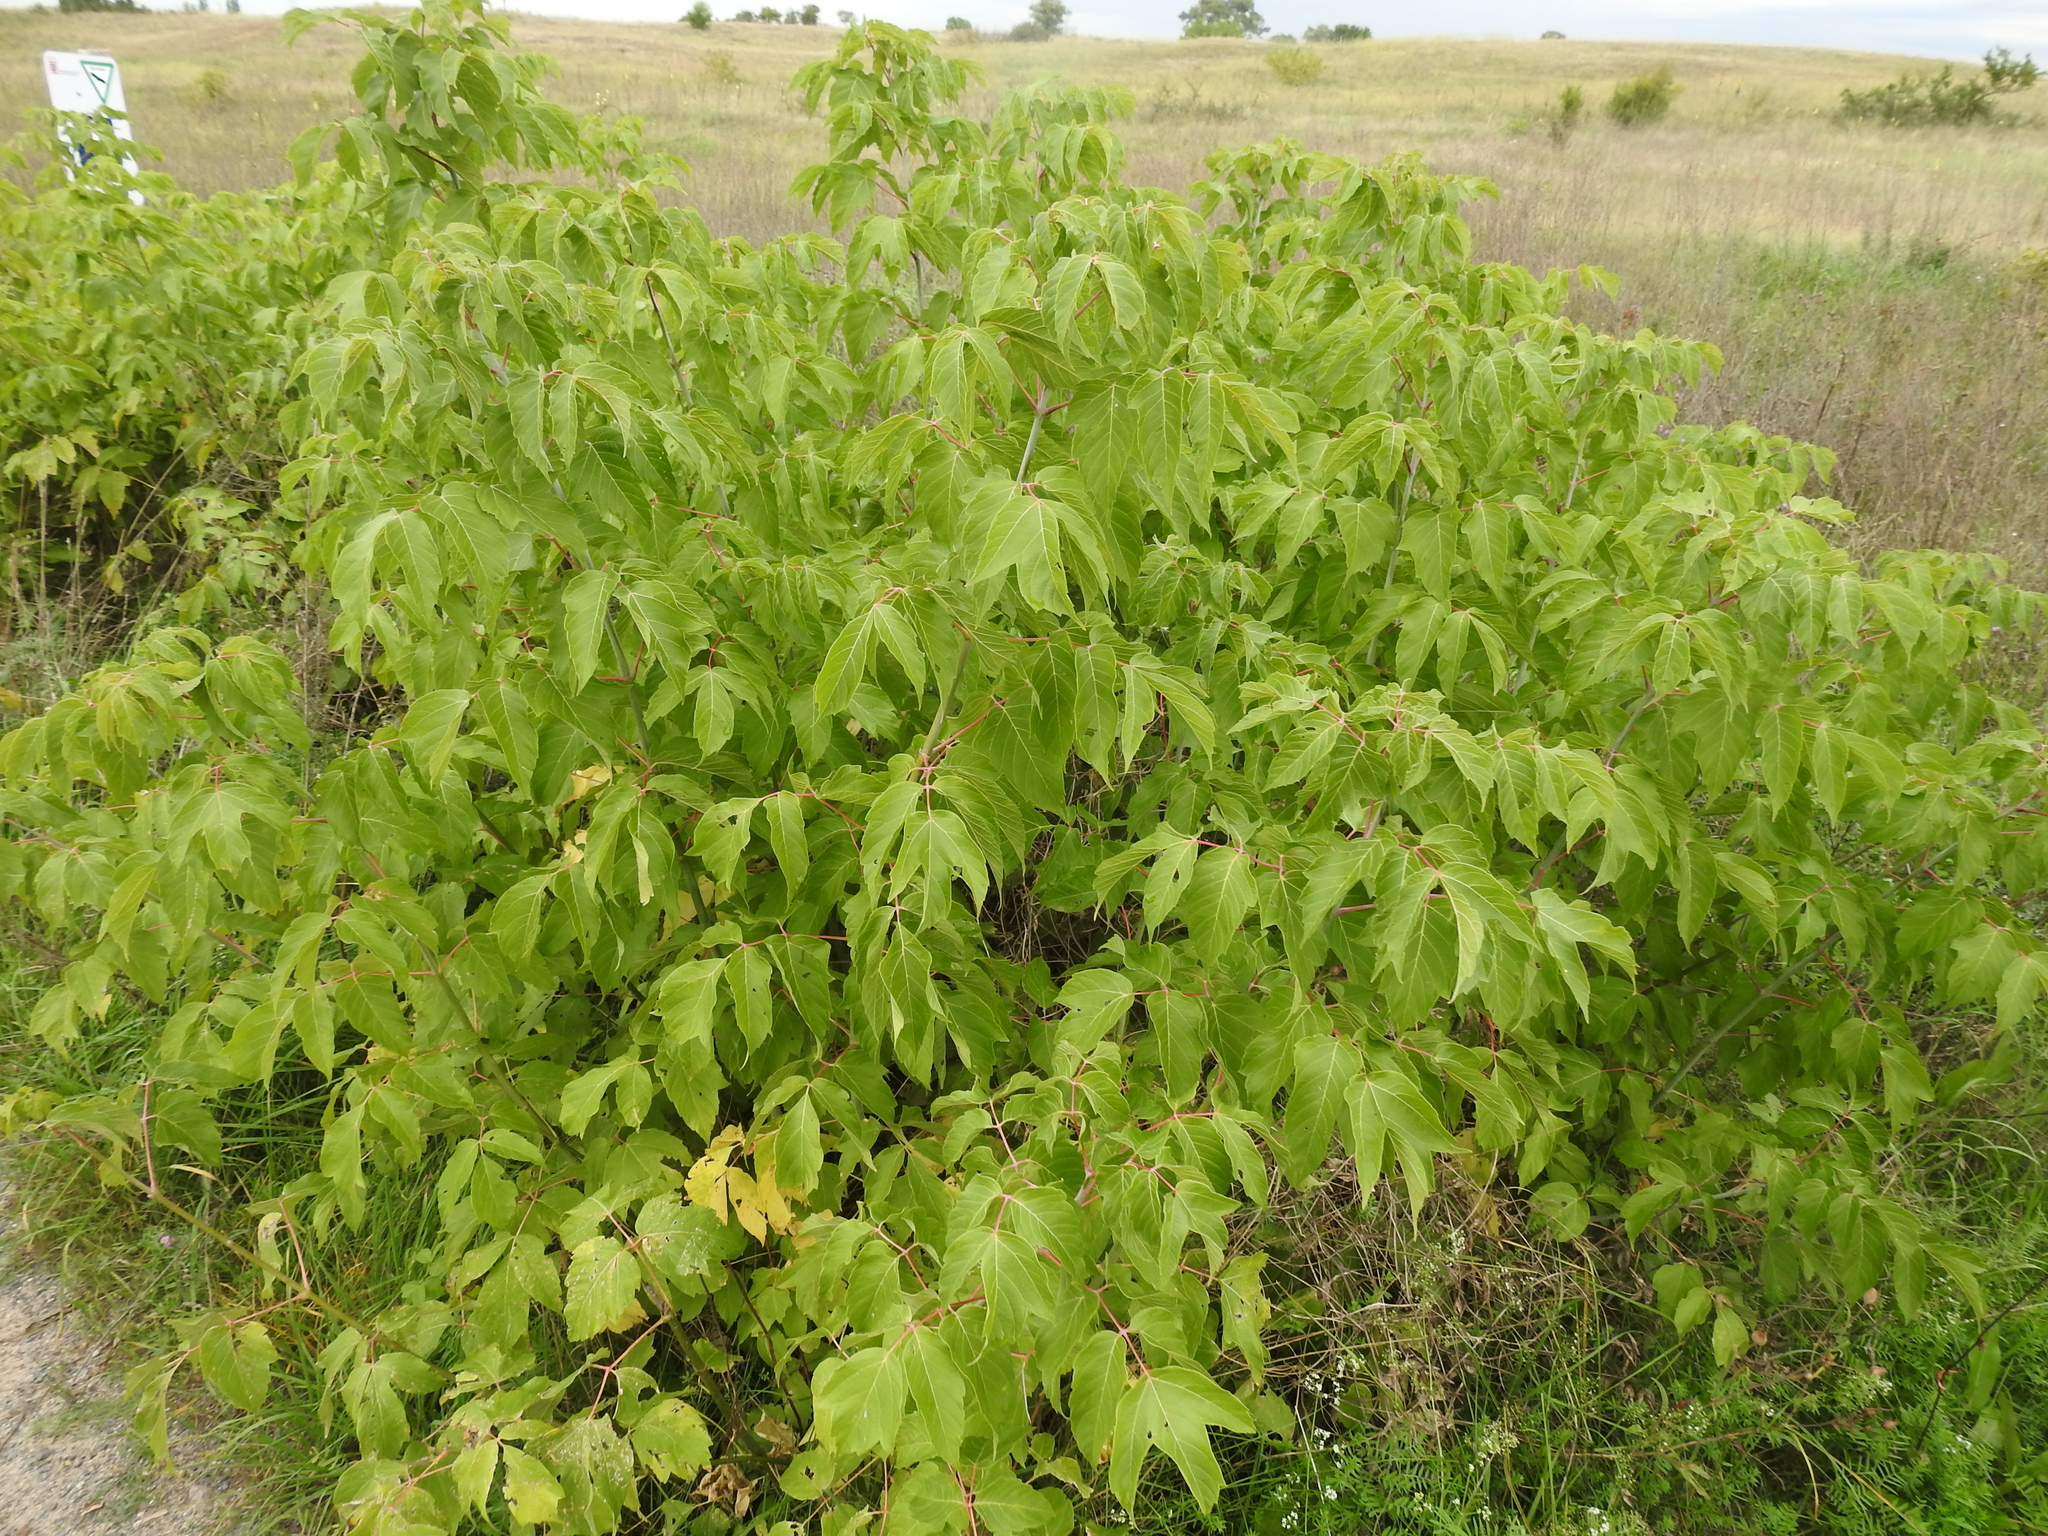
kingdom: Plantae
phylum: Tracheophyta
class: Magnoliopsida
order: Sapindales
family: Sapindaceae
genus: Acer
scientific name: Acer negundo
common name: Ashleaf maple
